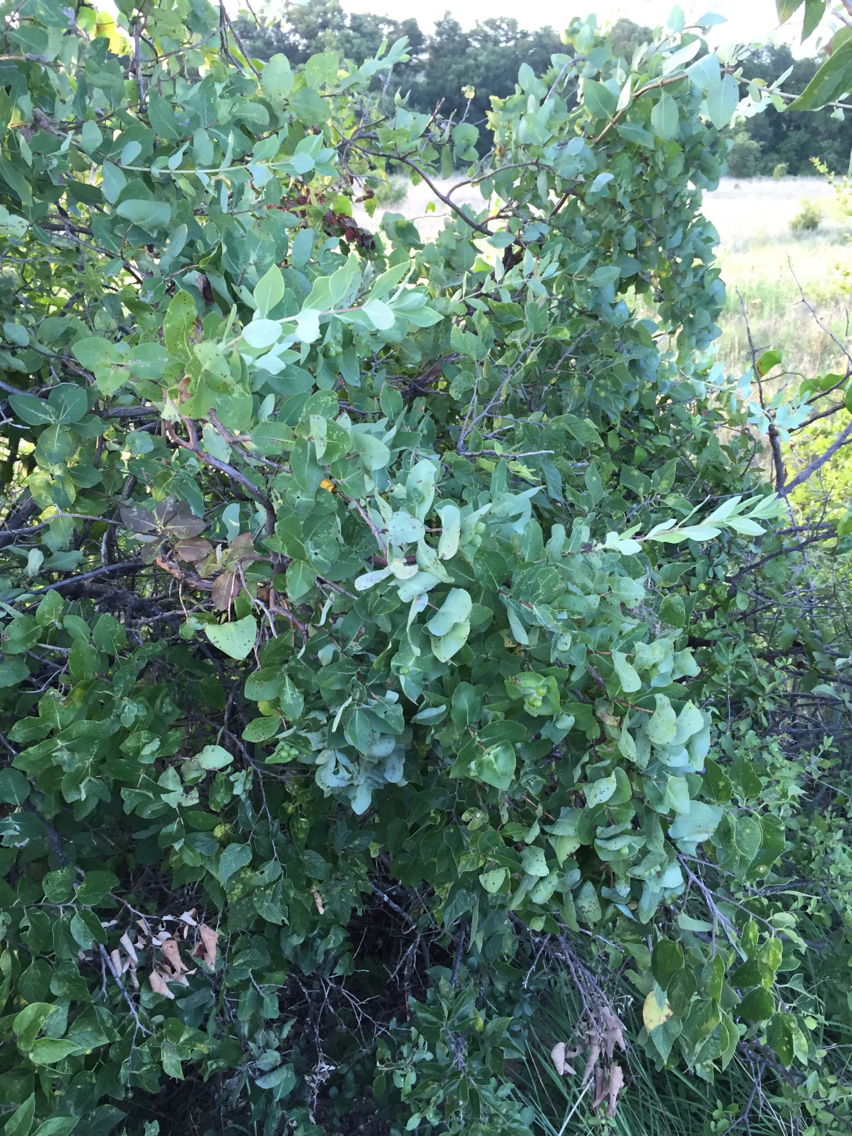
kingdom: Plantae
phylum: Tracheophyta
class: Magnoliopsida
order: Dipsacales
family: Caprifoliaceae
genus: Lonicera
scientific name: Lonicera albiflora
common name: White honeysuckle
